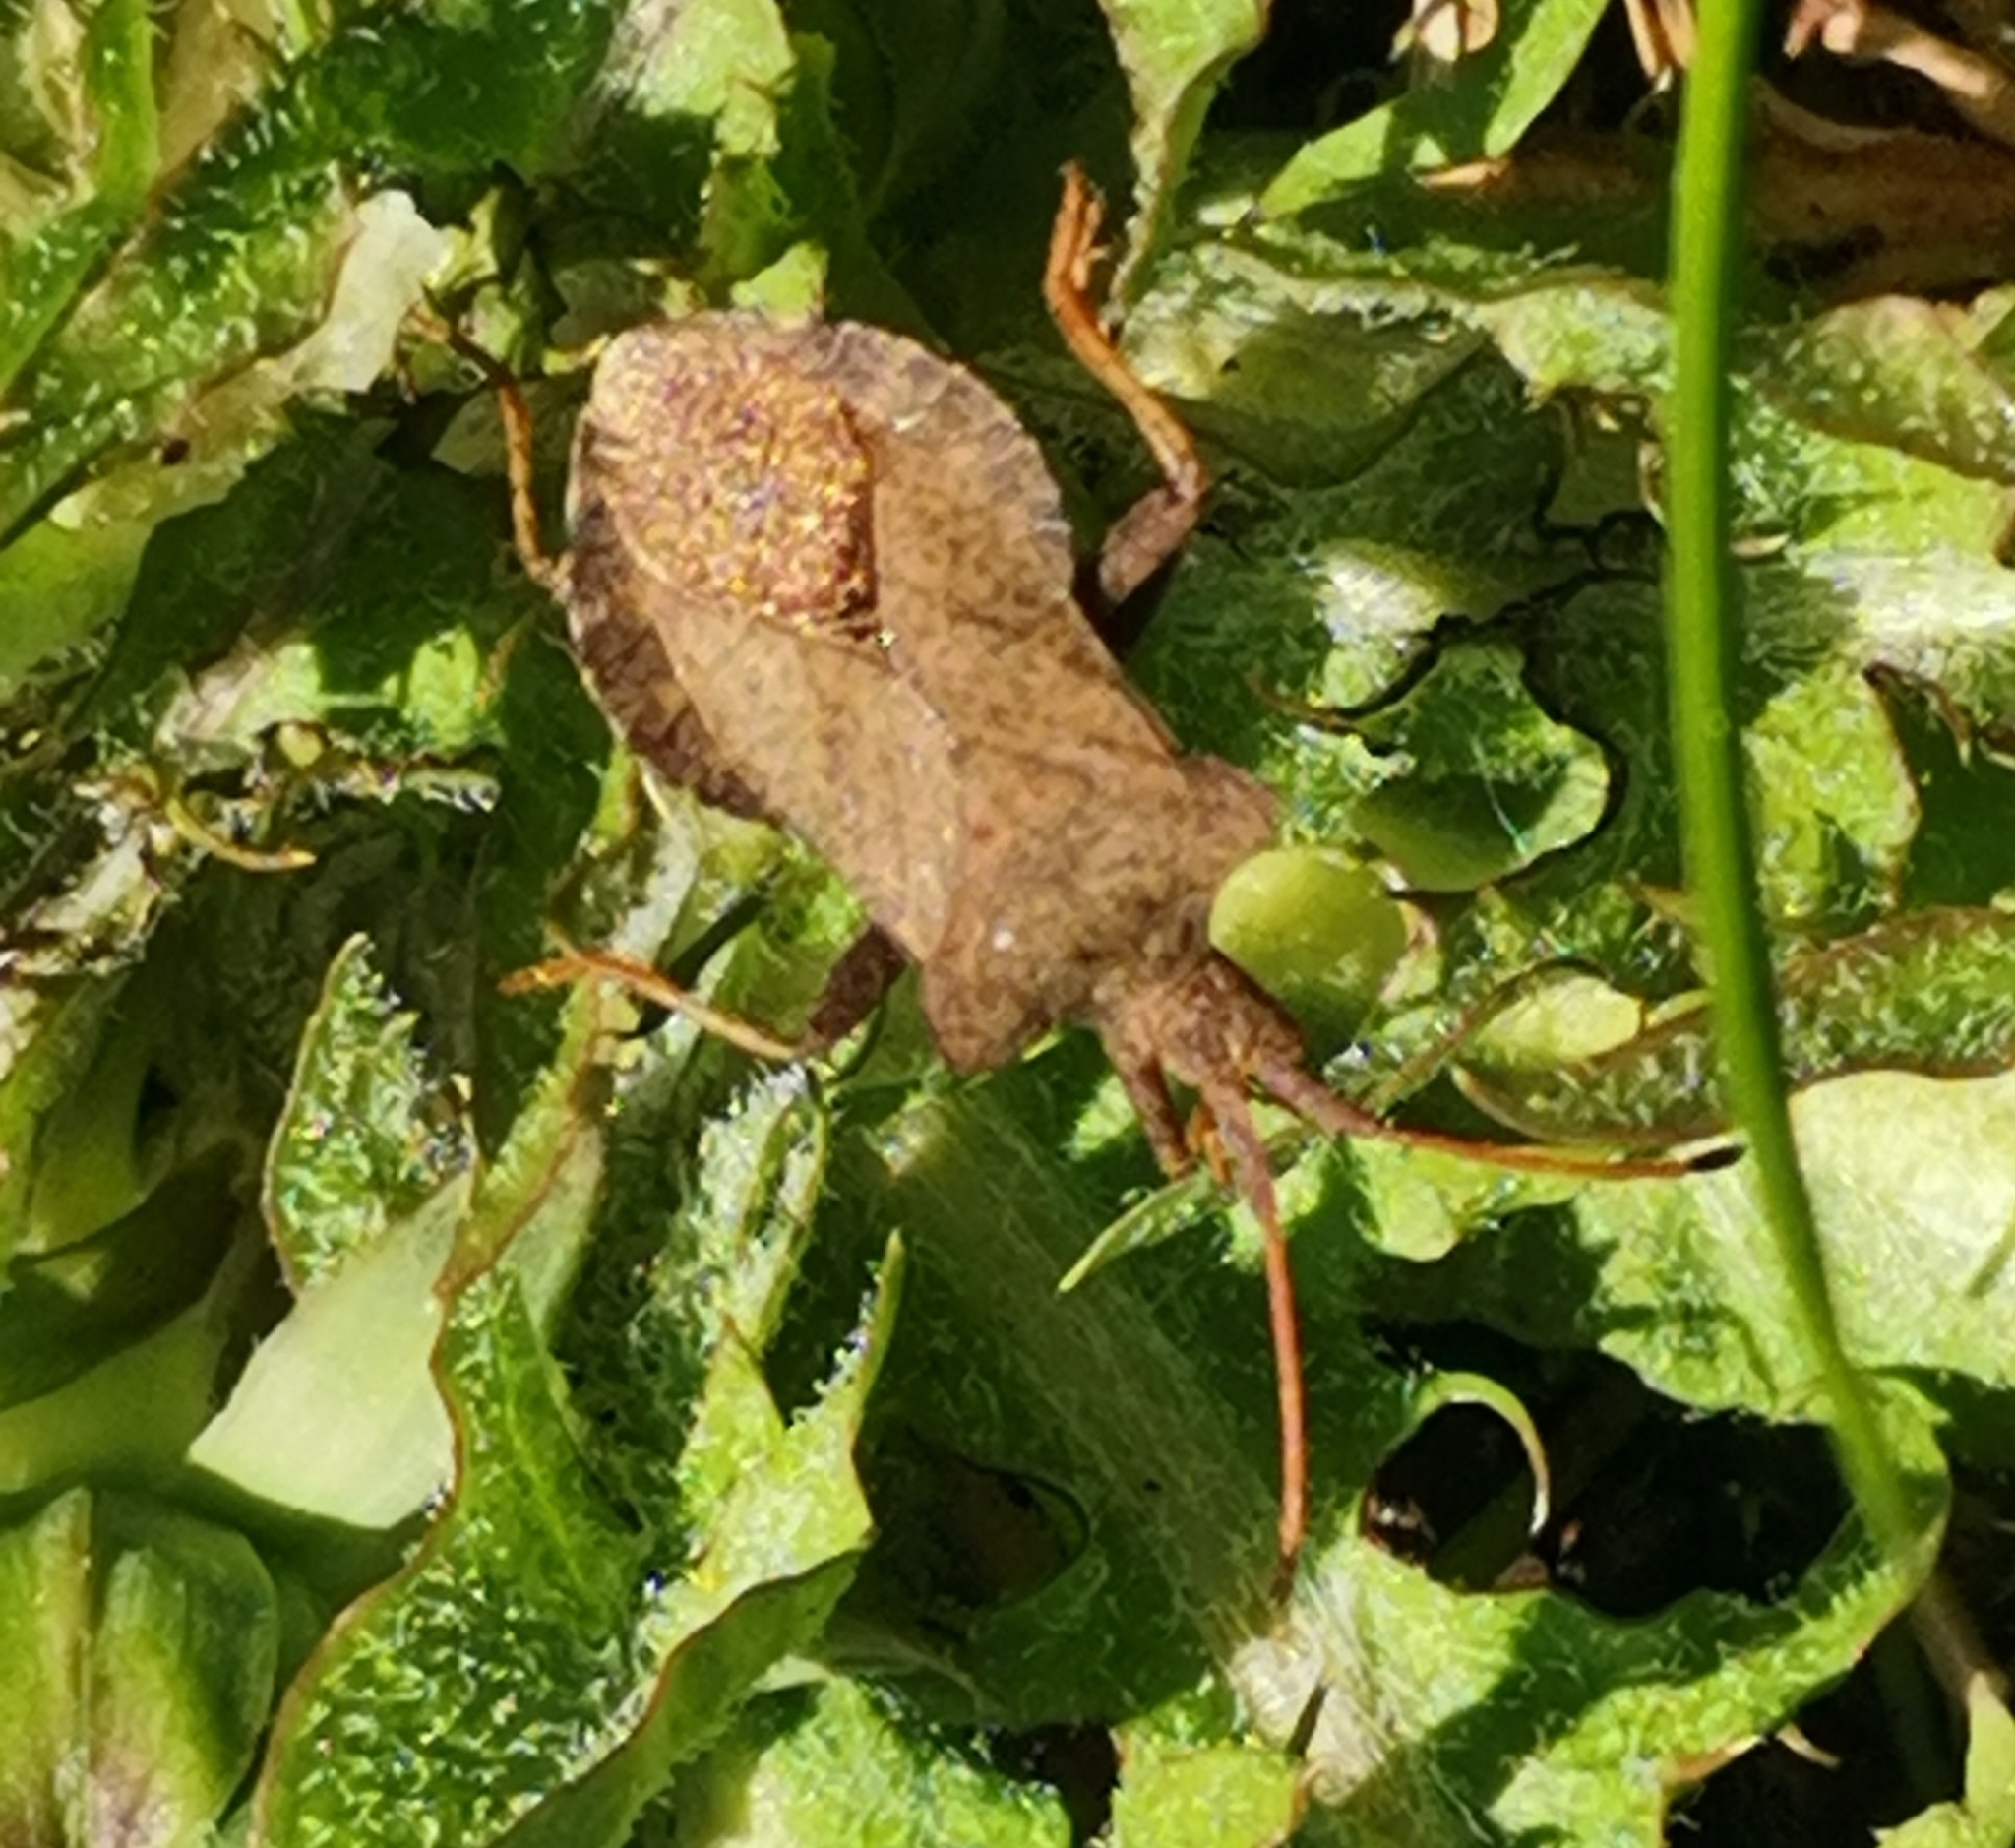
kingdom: Animalia
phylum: Arthropoda
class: Insecta
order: Hemiptera
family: Coreidae
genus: Coreus
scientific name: Coreus marginatus
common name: Dock bug
